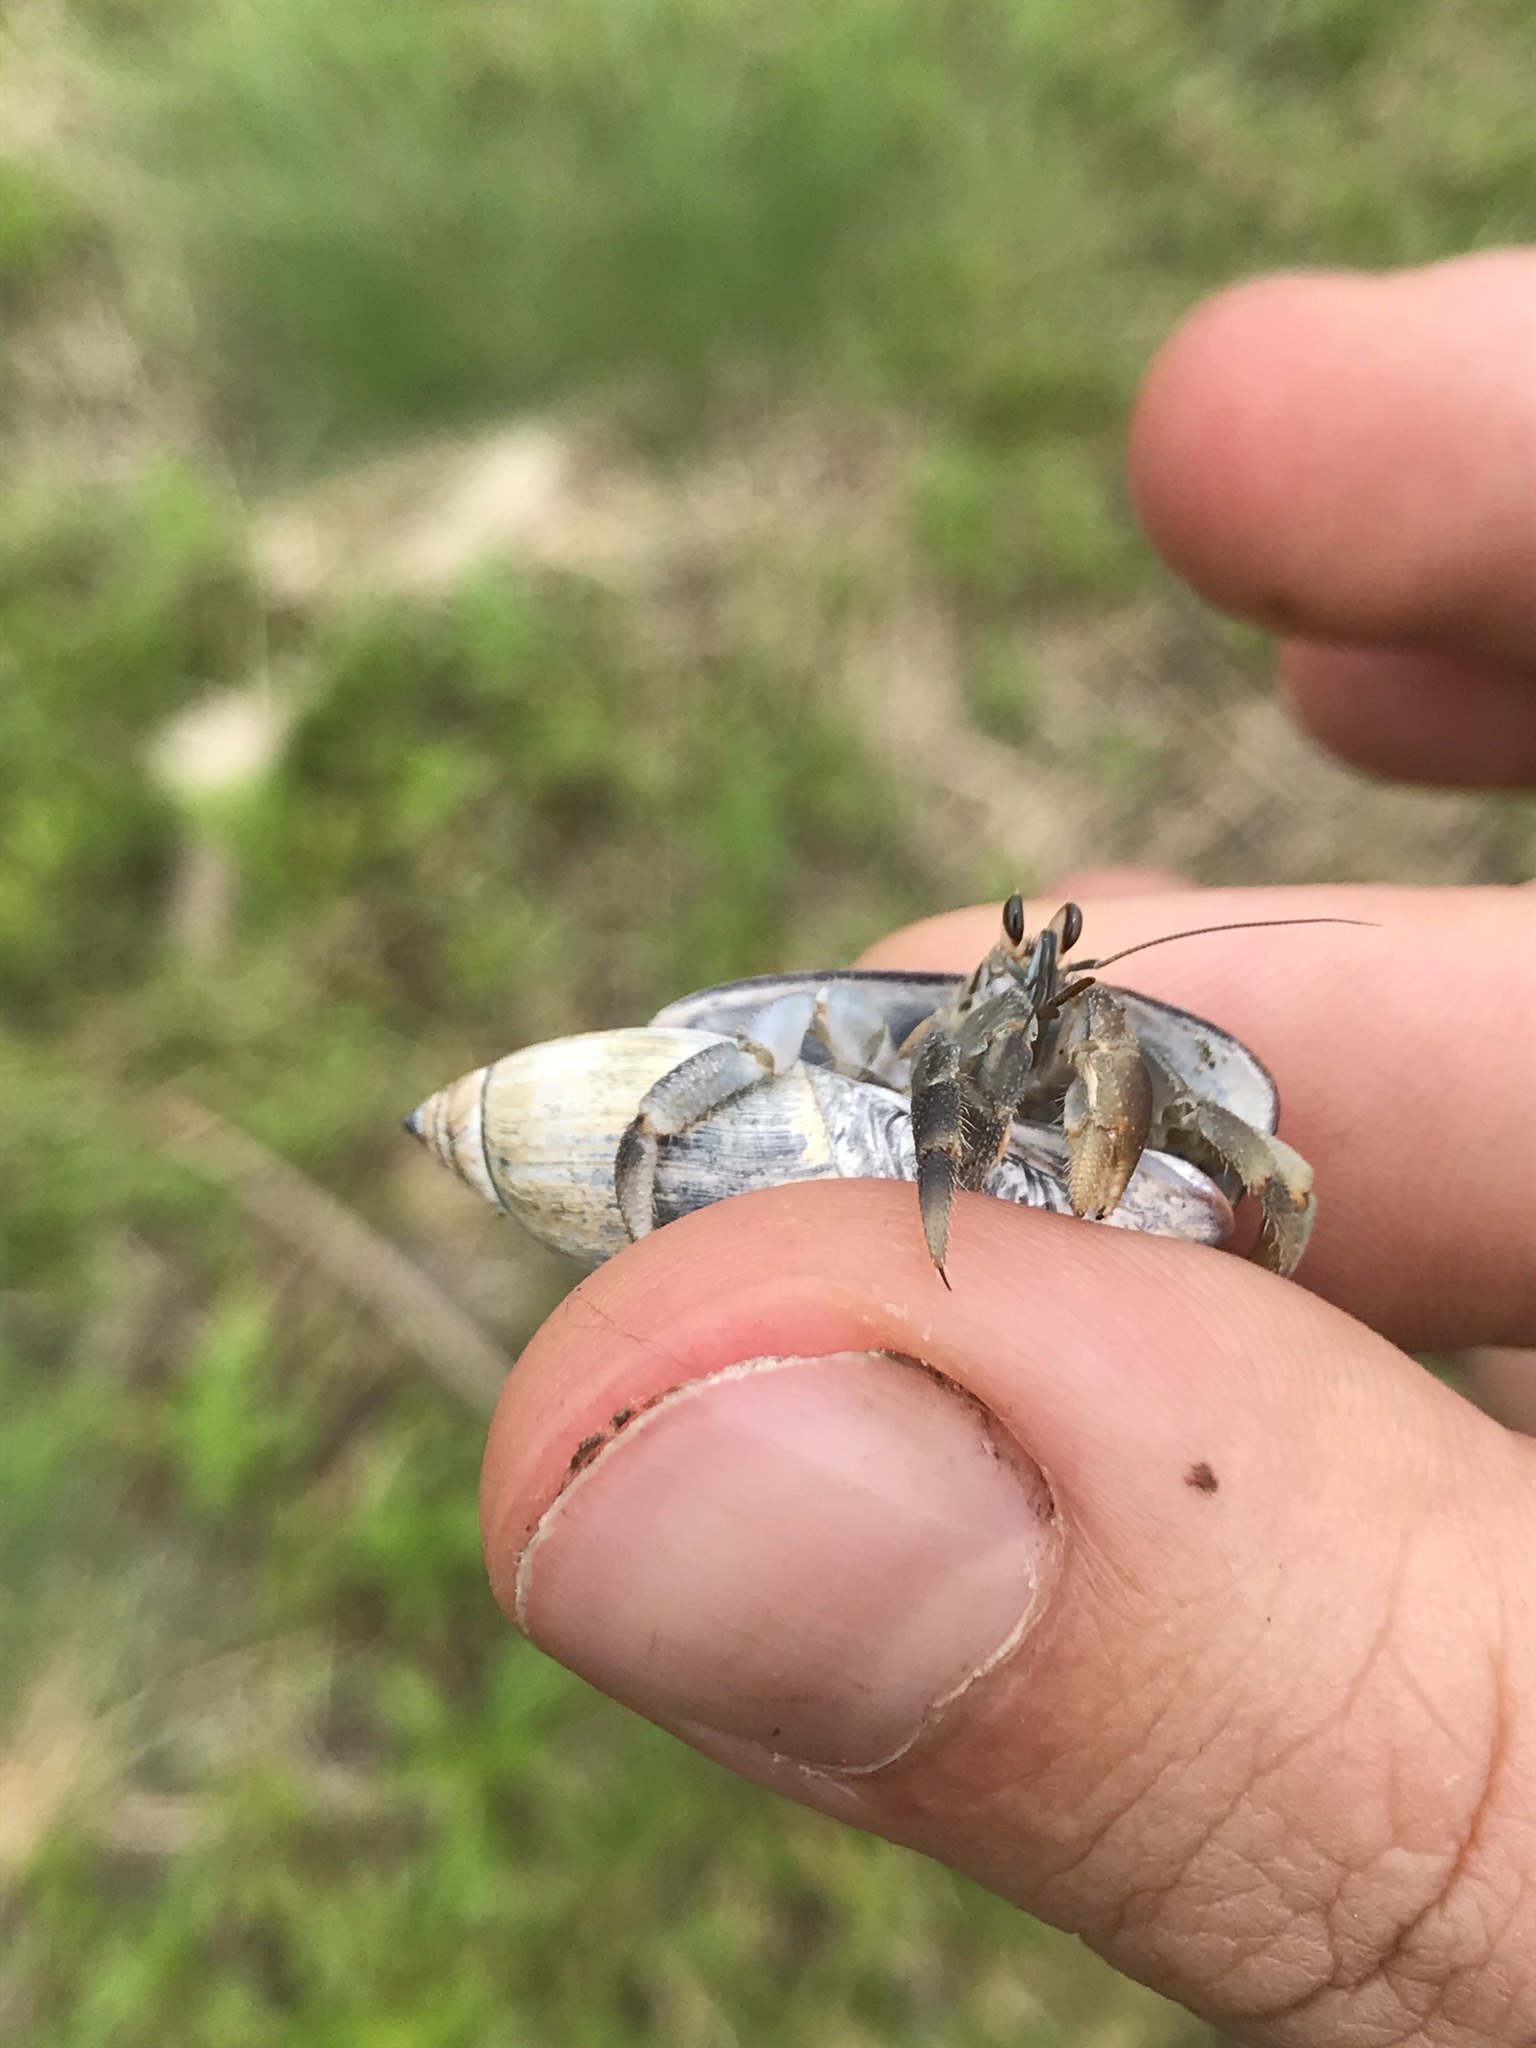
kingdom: Animalia
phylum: Arthropoda
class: Malacostraca
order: Decapoda
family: Coenobitidae
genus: Coenobita
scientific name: Coenobita compressus
